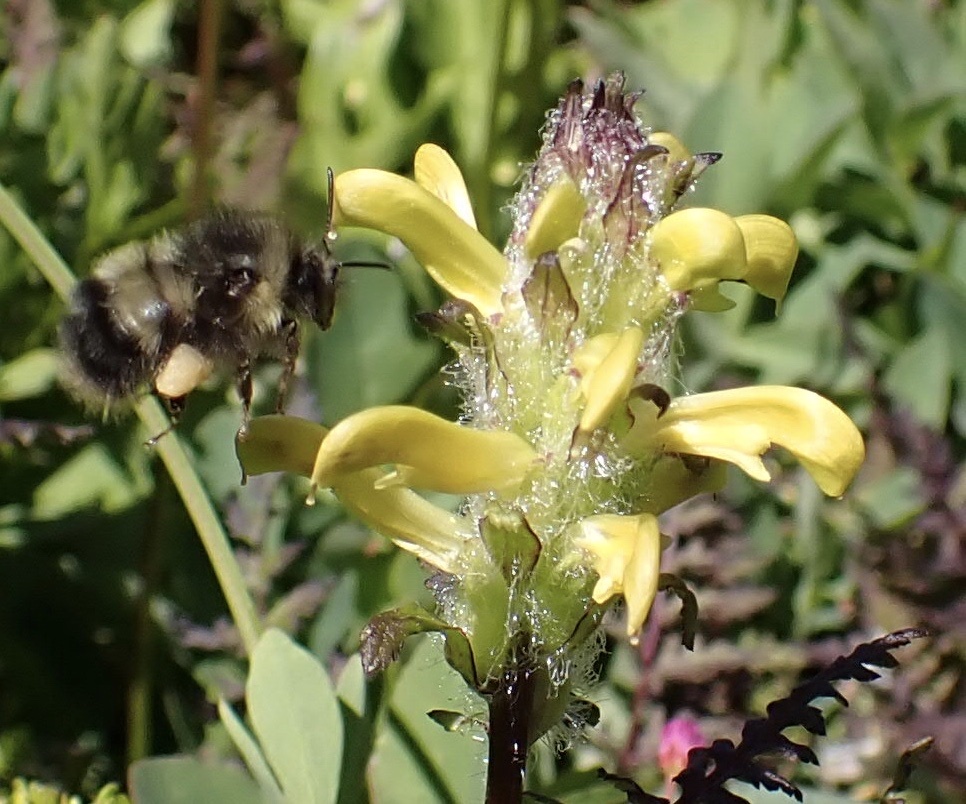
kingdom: Animalia
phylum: Arthropoda
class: Insecta
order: Hymenoptera
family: Apidae
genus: Bombus
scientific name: Bombus sitkensis
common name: Sitka bumble bee
